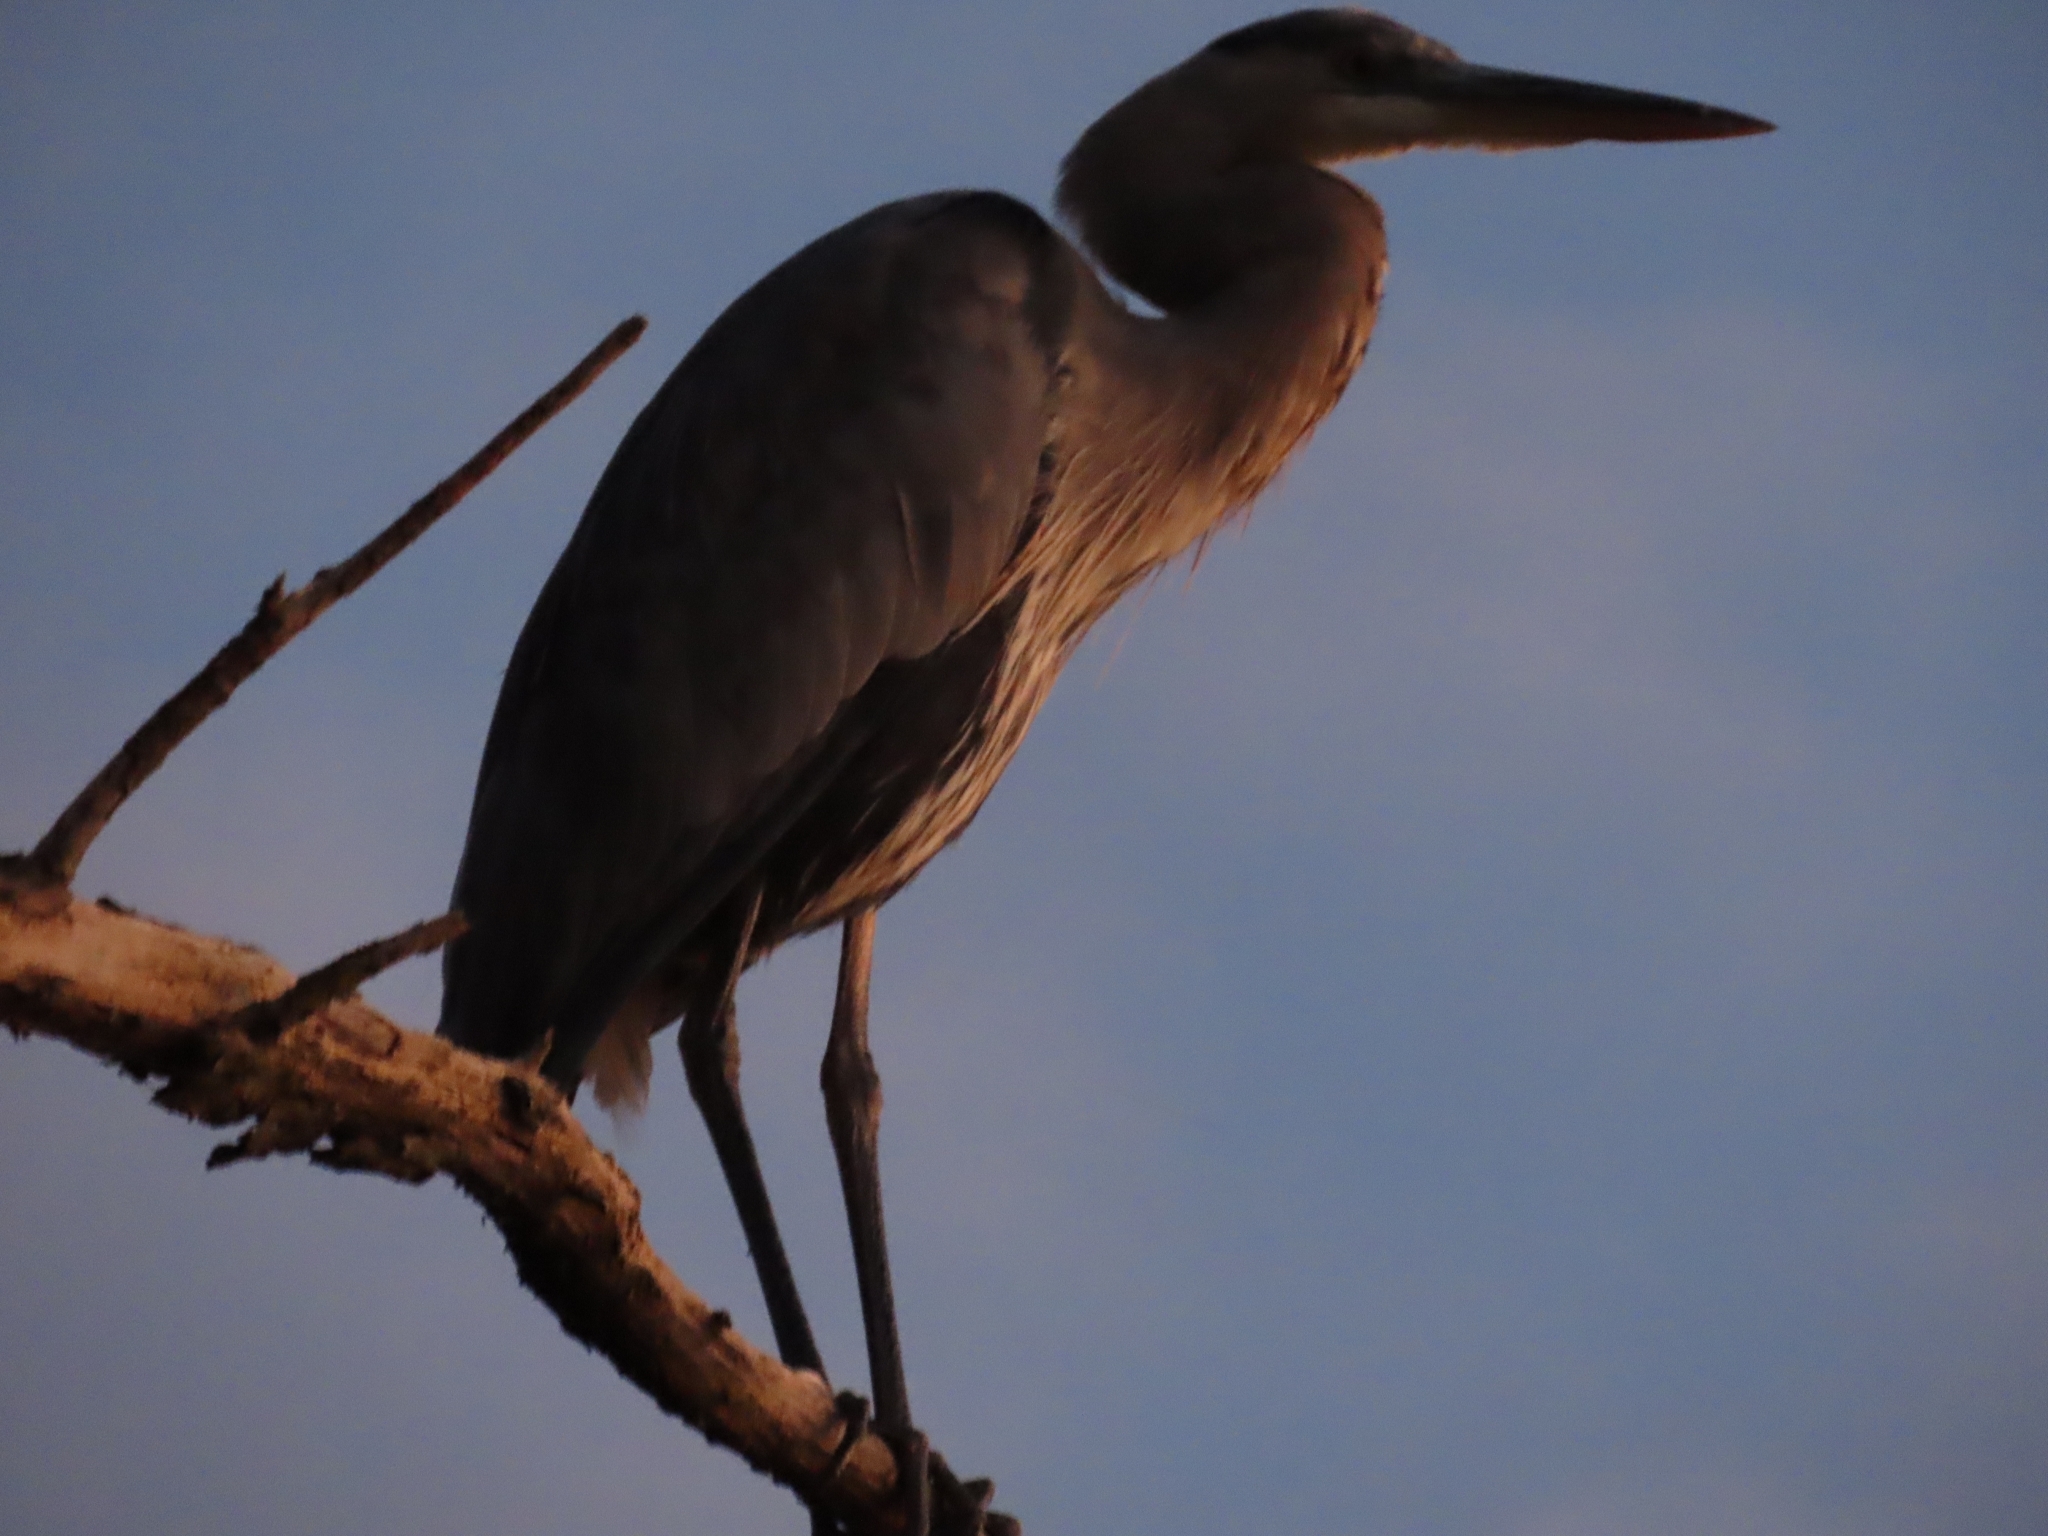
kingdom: Animalia
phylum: Chordata
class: Aves
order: Pelecaniformes
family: Ardeidae
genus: Ardea
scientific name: Ardea herodias
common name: Great blue heron
